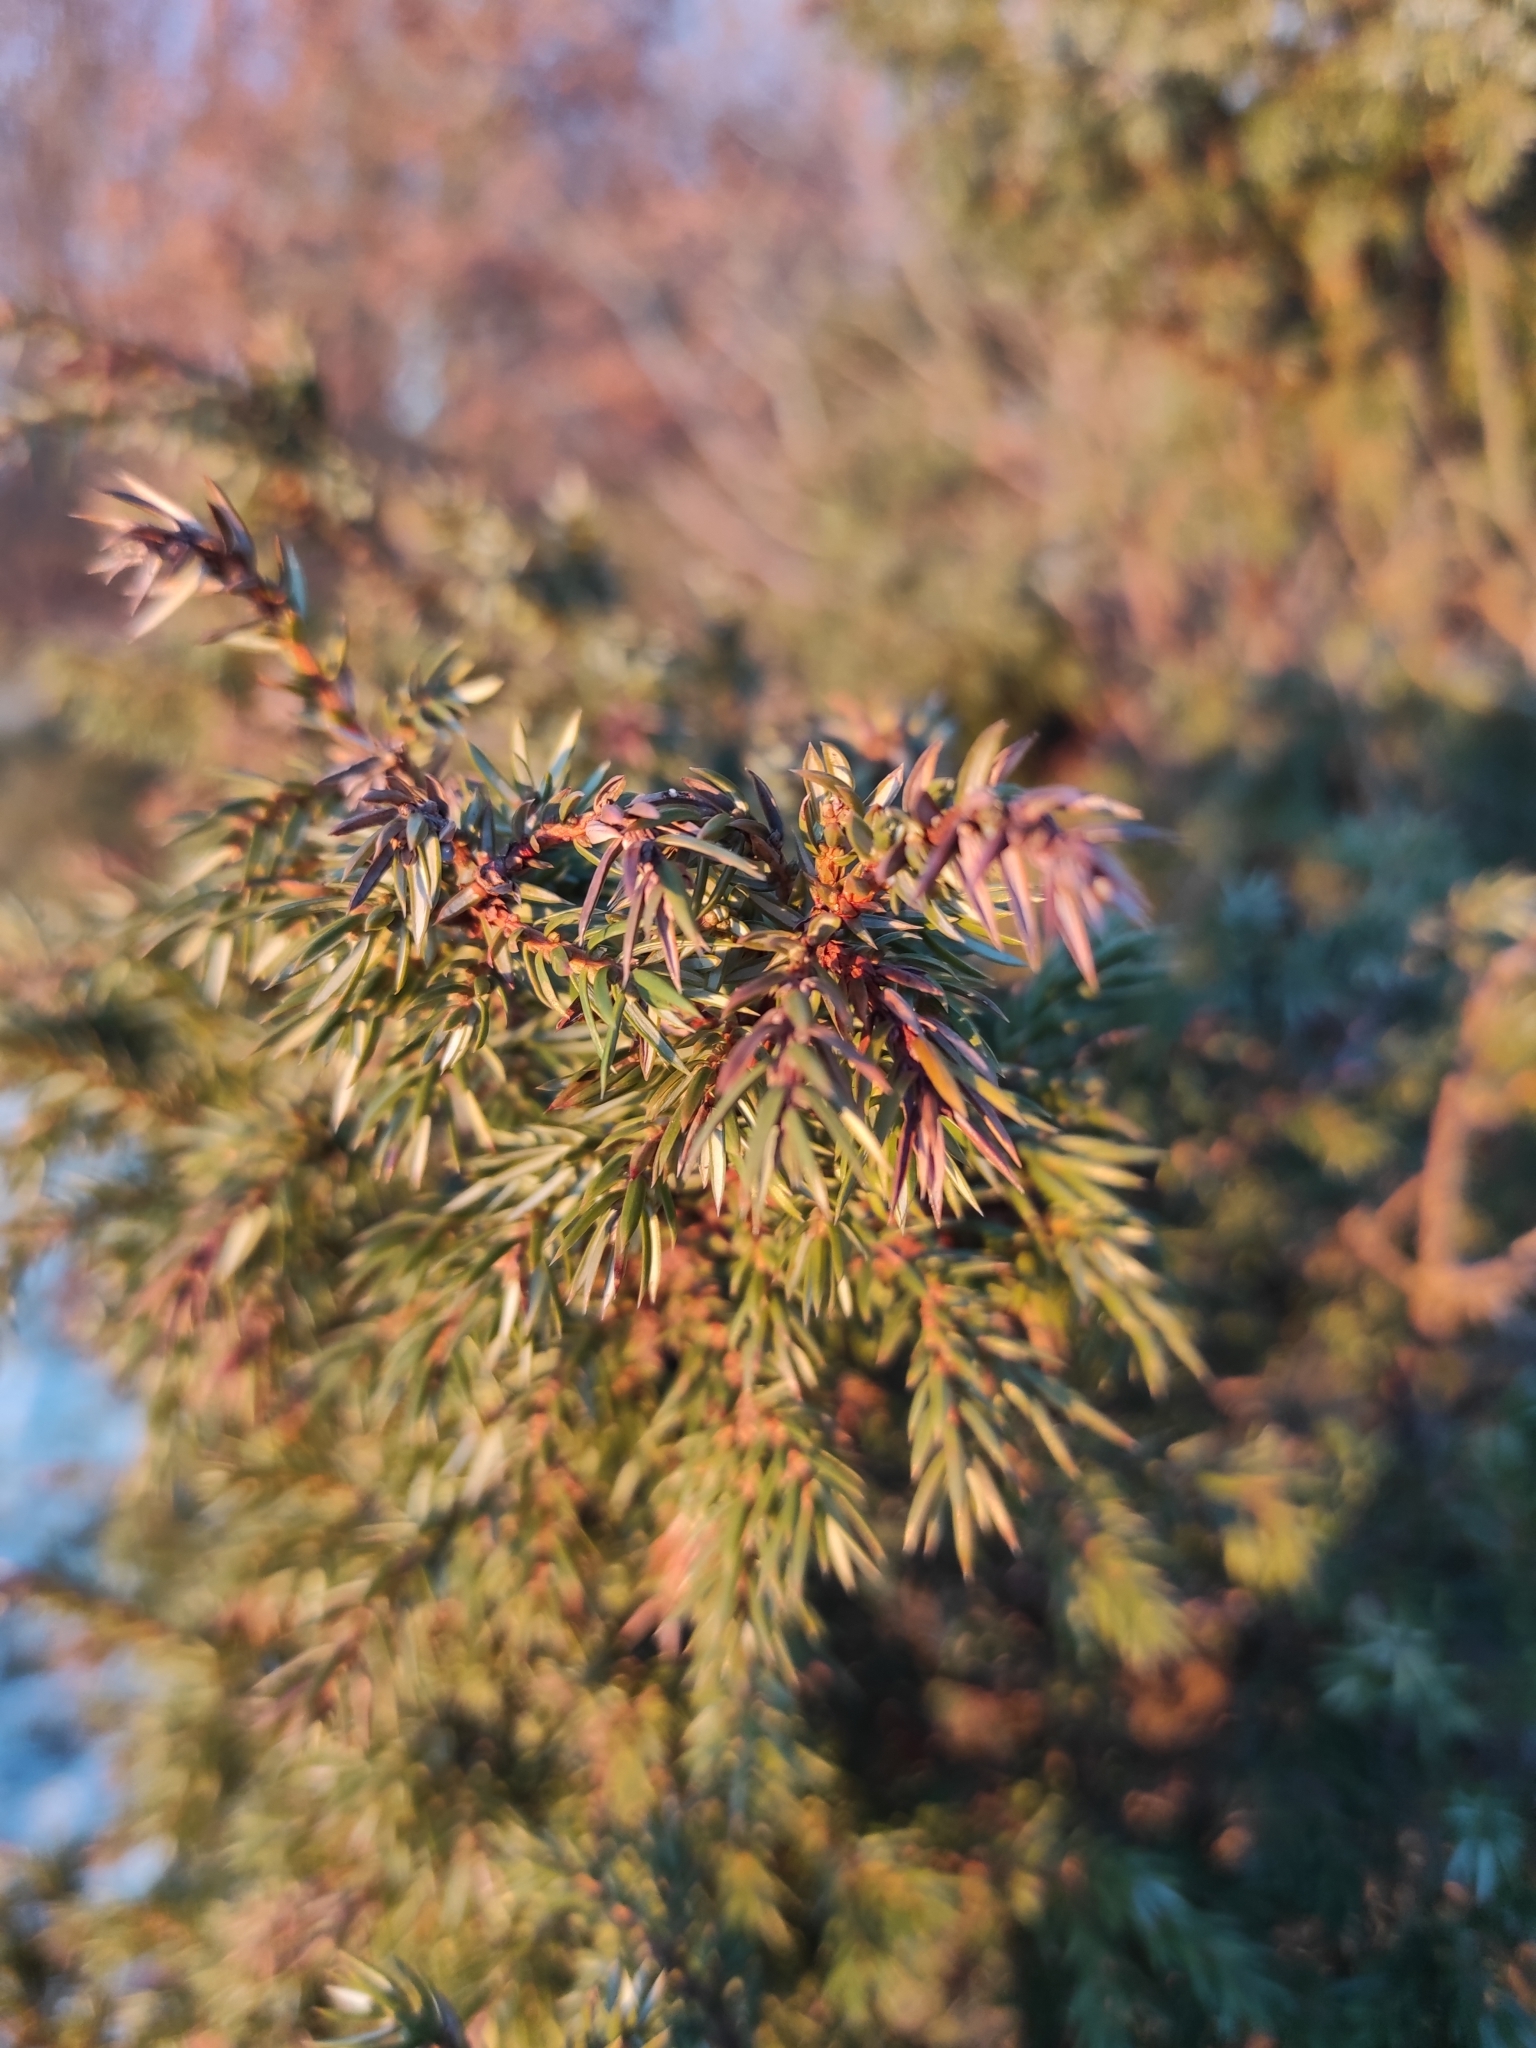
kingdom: Plantae
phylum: Tracheophyta
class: Pinopsida
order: Pinales
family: Cupressaceae
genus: Juniperus
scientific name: Juniperus communis
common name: Common juniper
